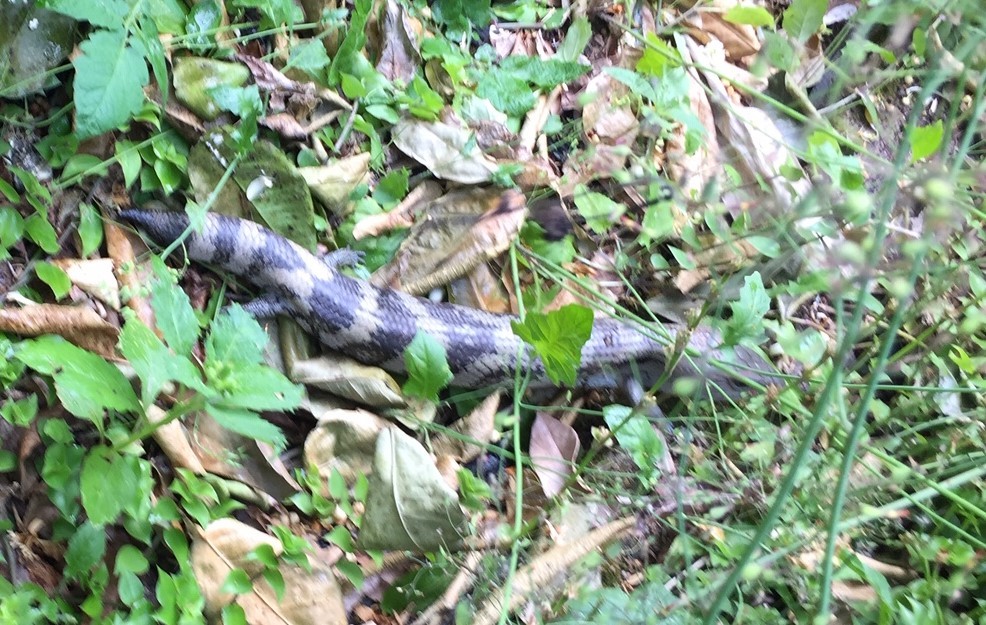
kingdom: Animalia
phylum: Chordata
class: Squamata
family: Scincidae
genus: Tiliqua
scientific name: Tiliqua scincoides
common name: Common bluetongue
